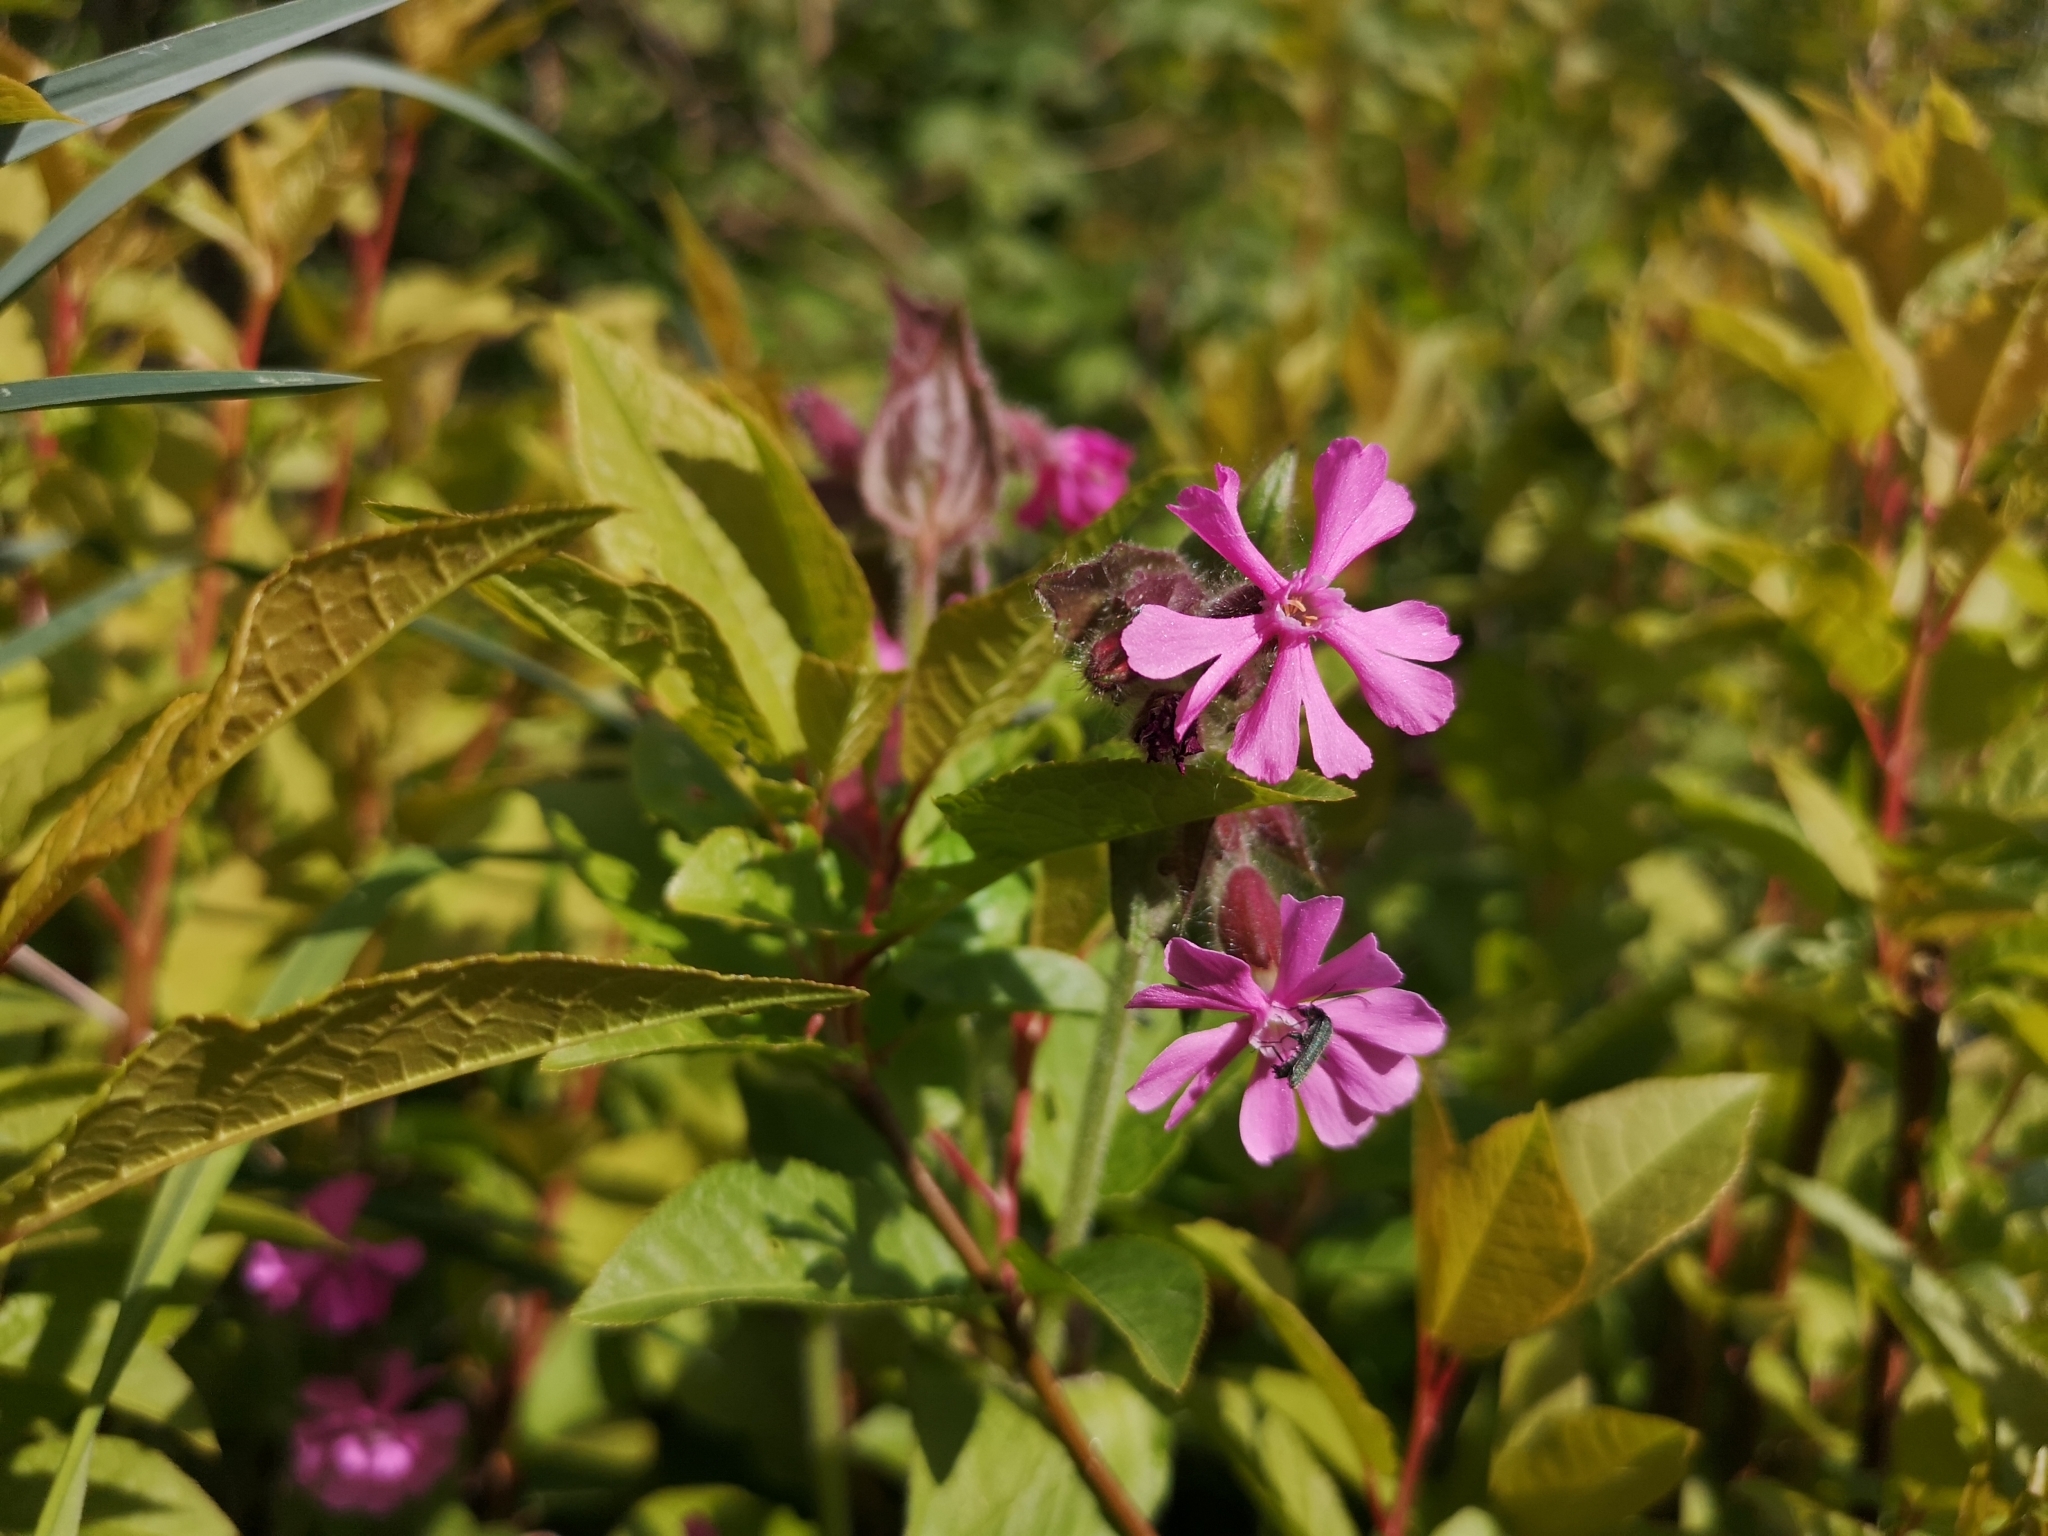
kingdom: Plantae
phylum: Tracheophyta
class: Magnoliopsida
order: Caryophyllales
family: Caryophyllaceae
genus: Silene
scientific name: Silene dioica
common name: Red campion
